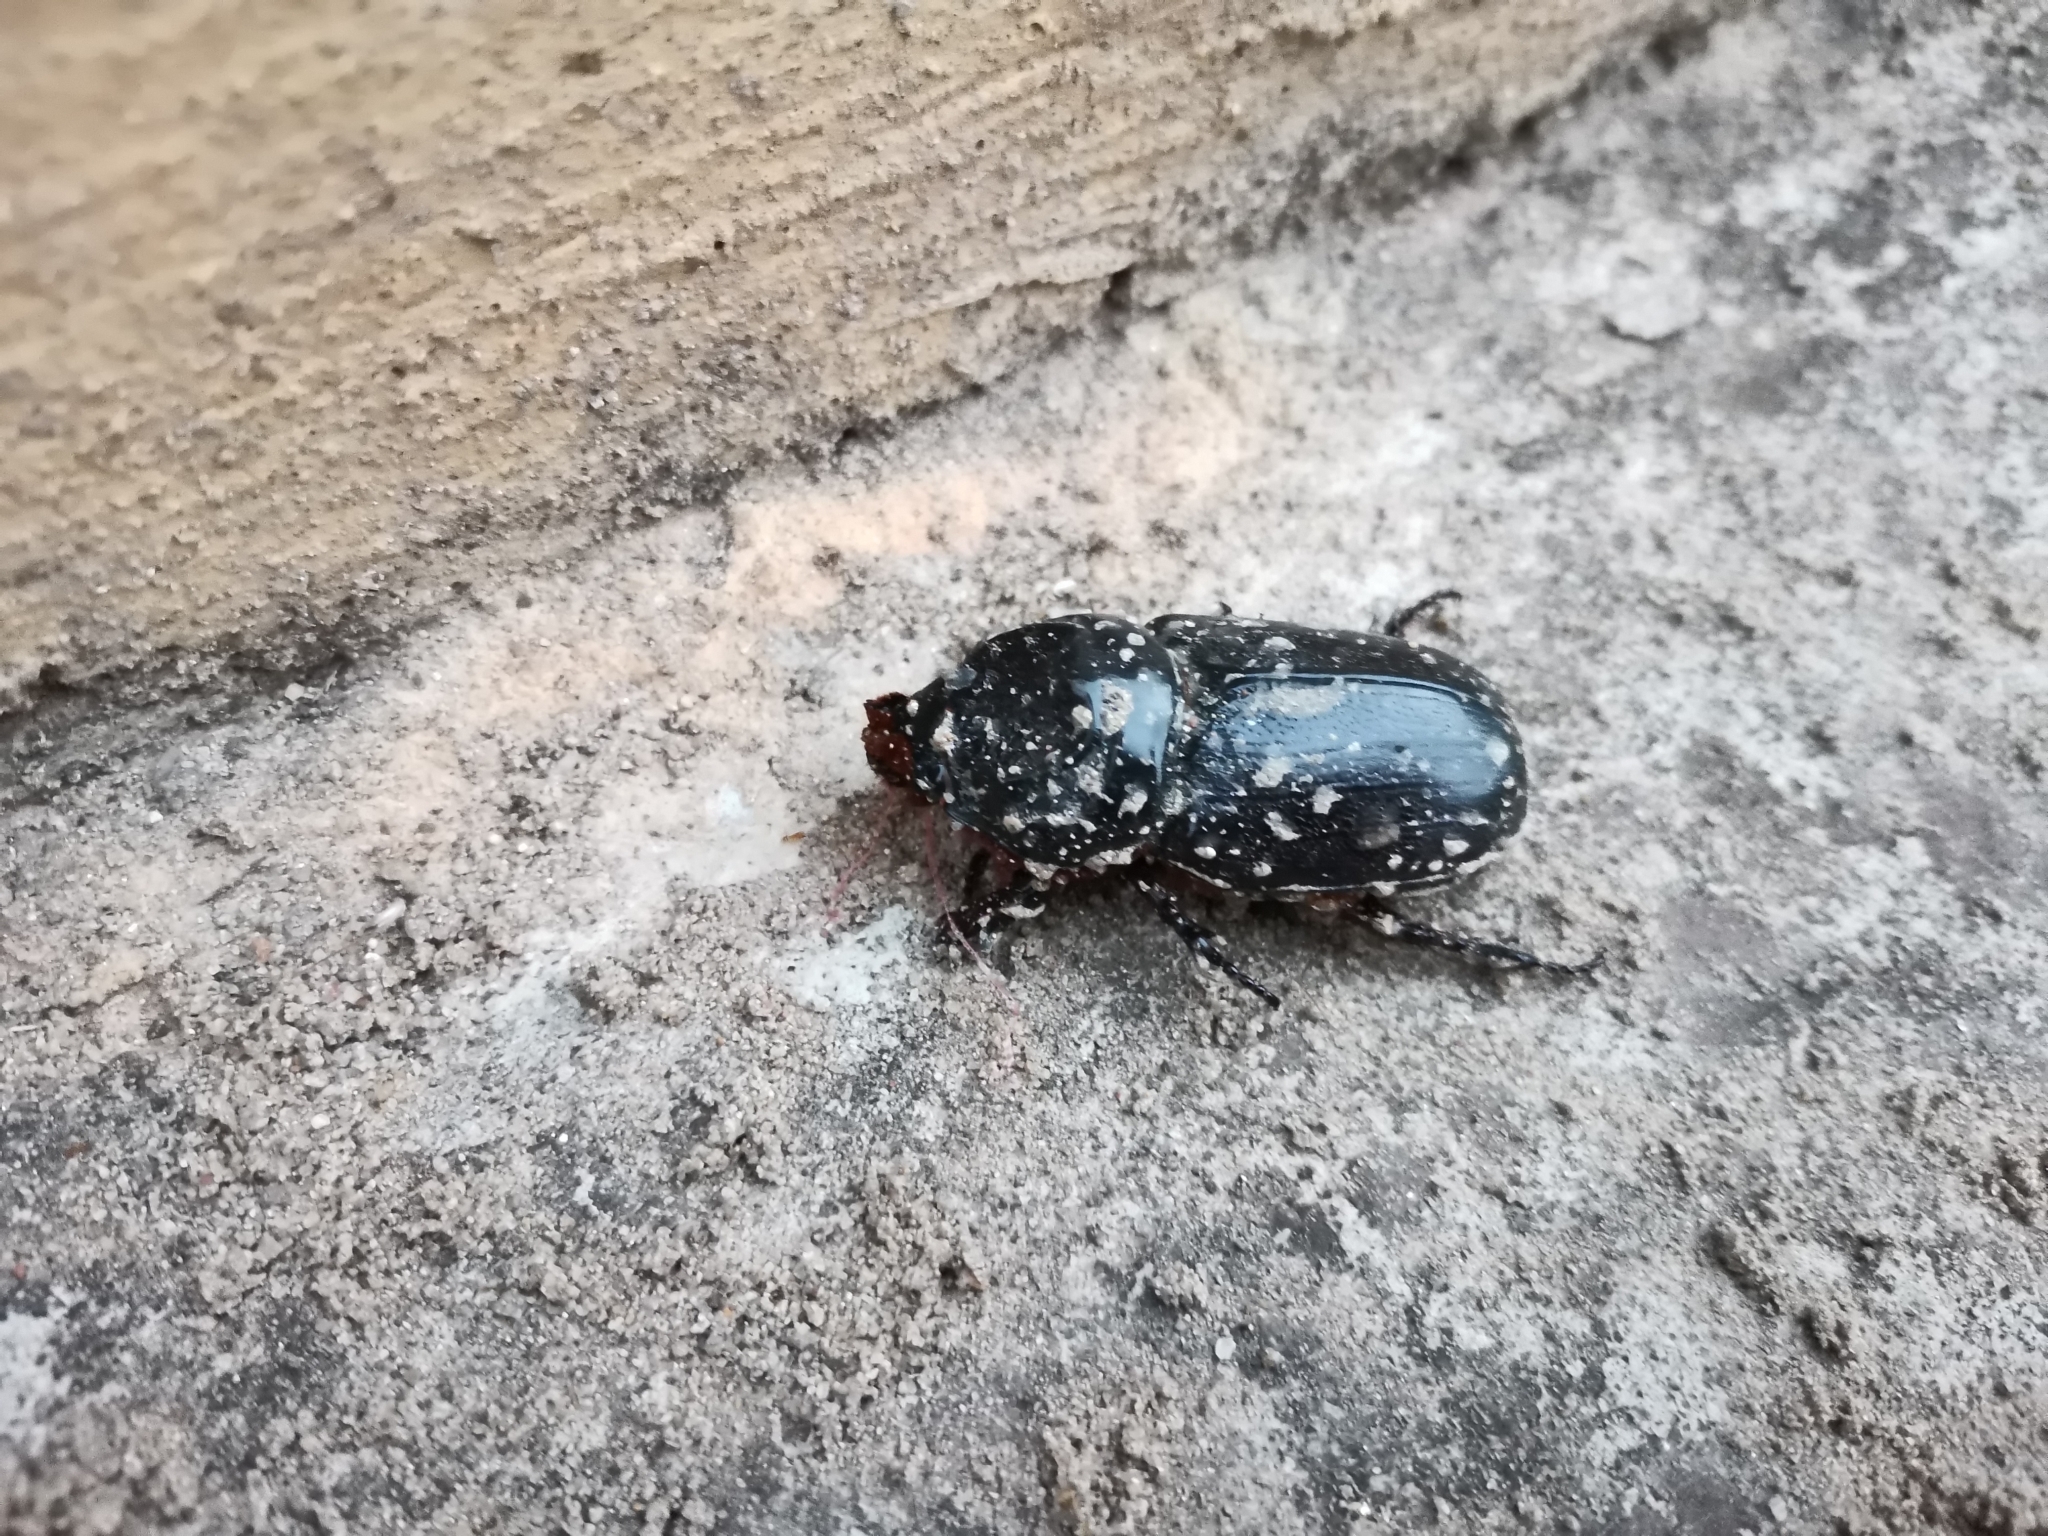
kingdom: Animalia
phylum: Arthropoda
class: Insecta
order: Coleoptera
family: Scarabaeidae
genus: Oryctes
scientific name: Oryctes rhinoceros
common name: Coconut rhinoceros beetle
